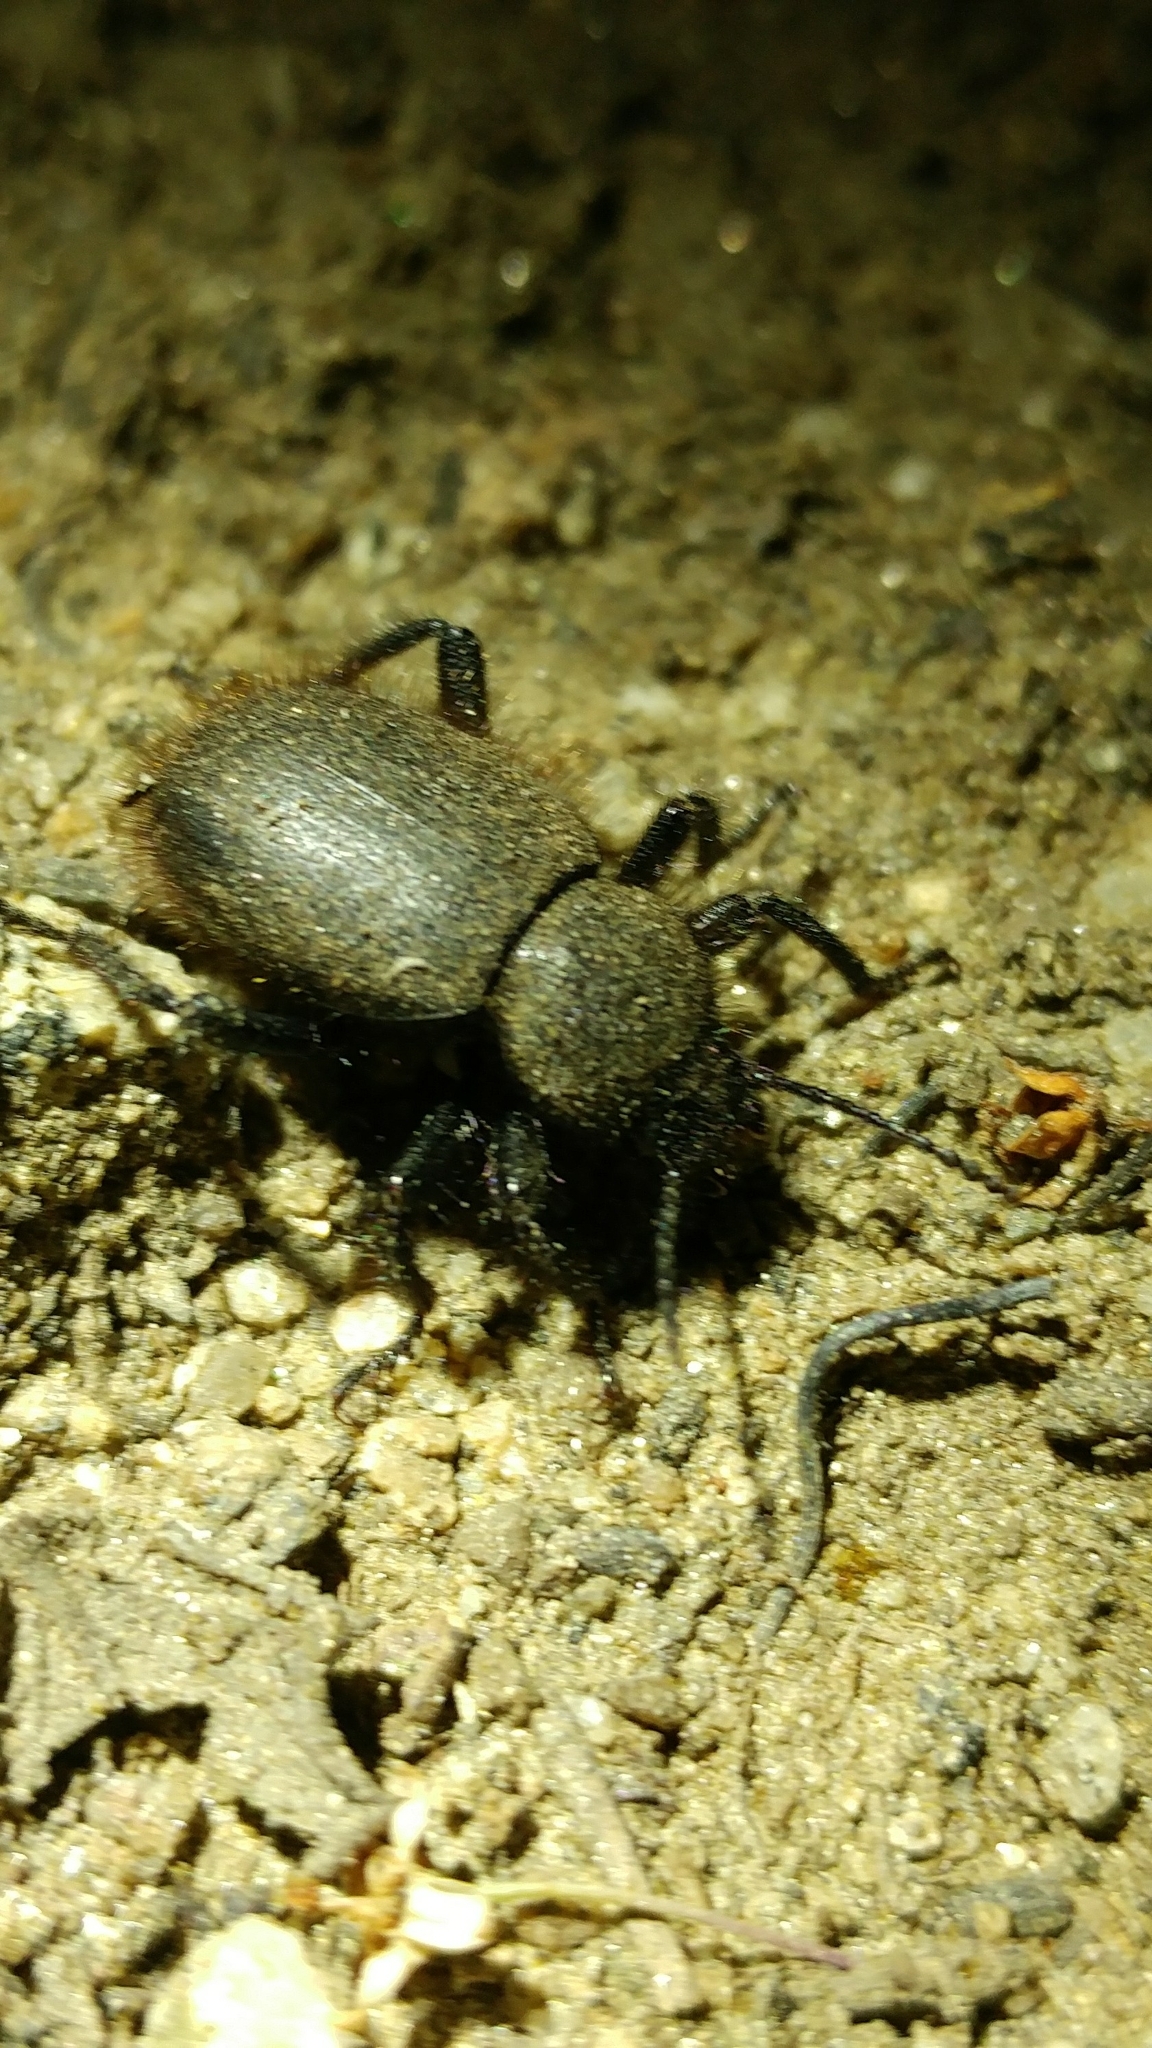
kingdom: Animalia
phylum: Arthropoda
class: Insecta
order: Coleoptera
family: Tenebrionidae
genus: Eleodes
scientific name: Eleodes osculans
